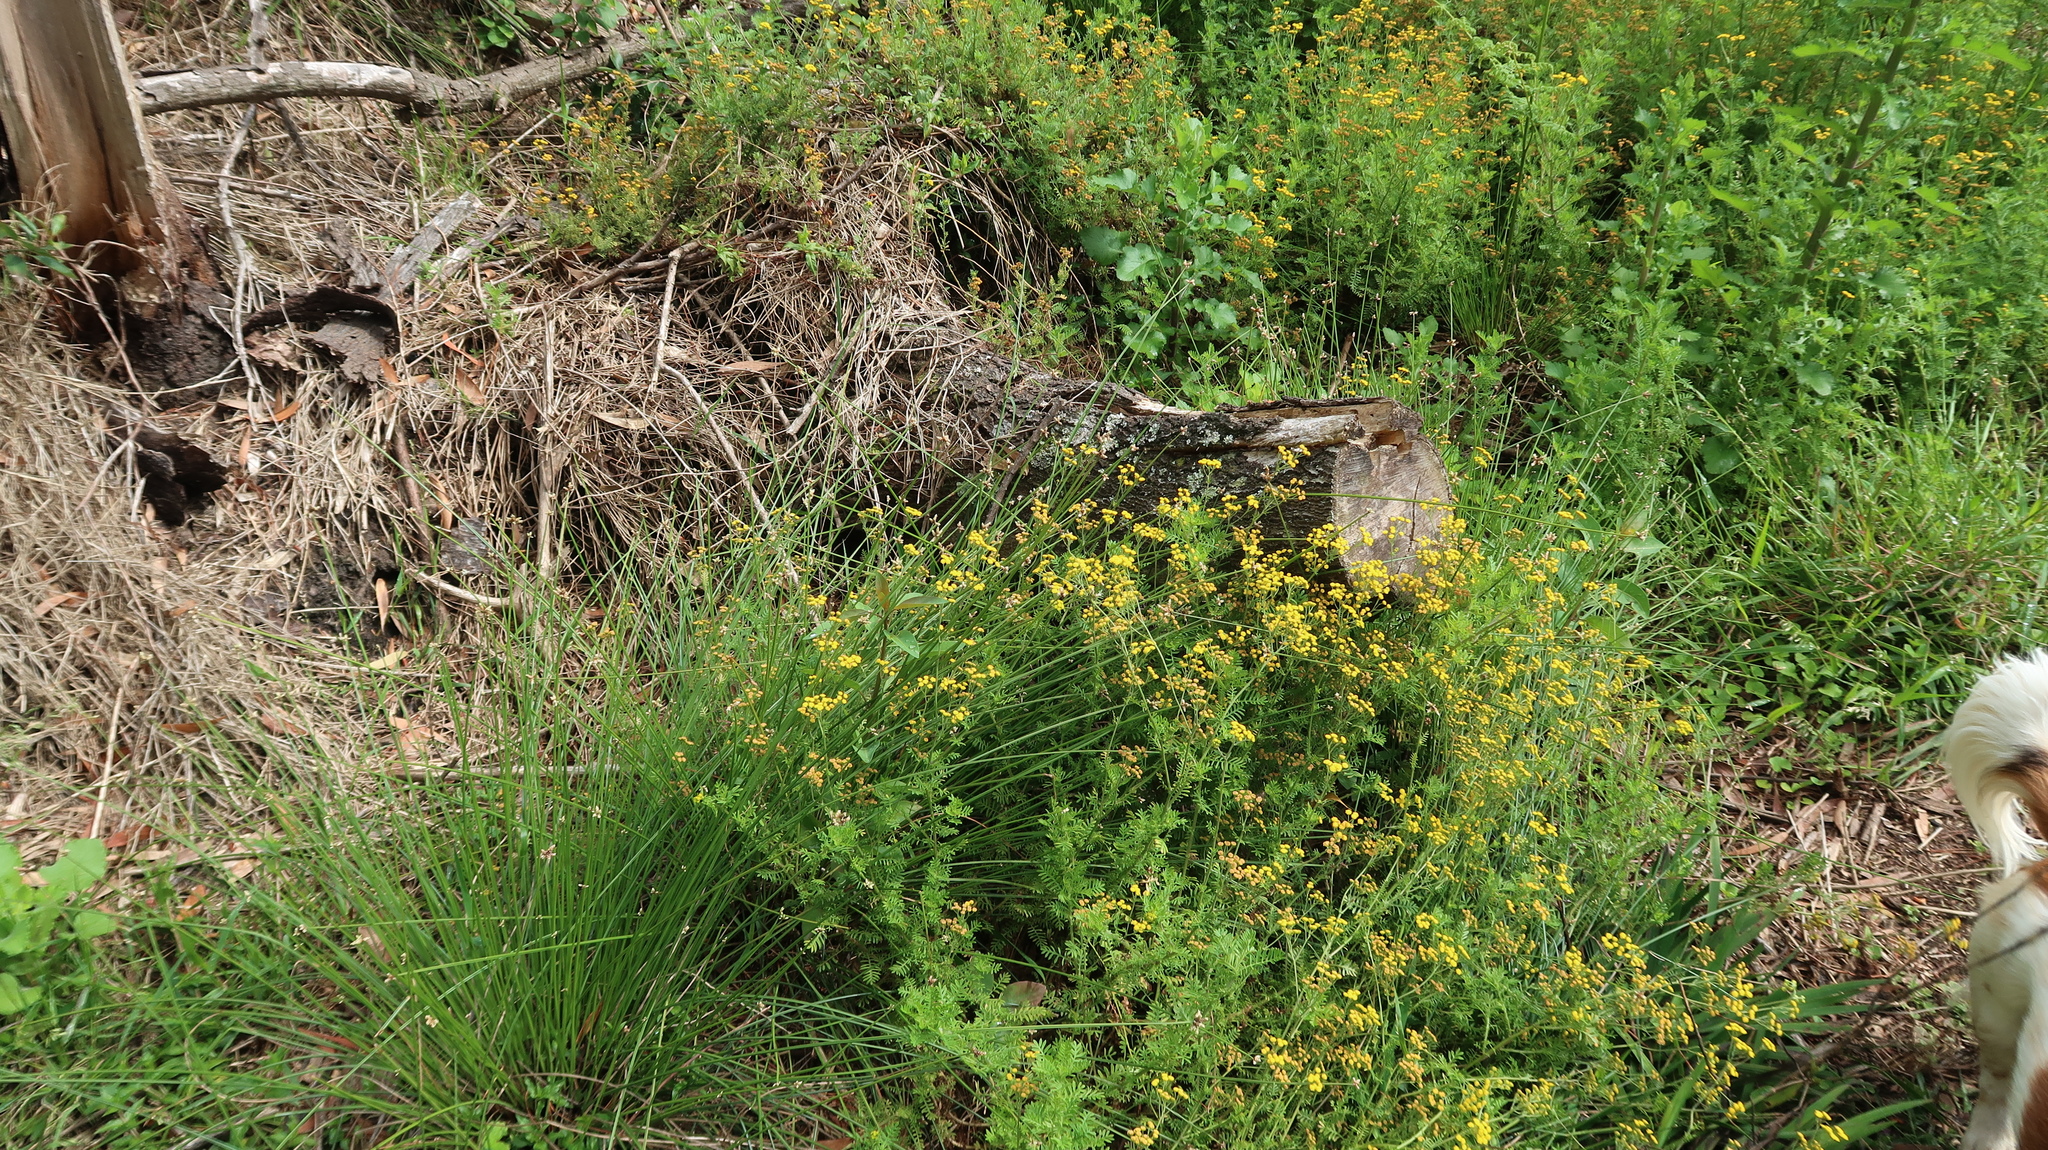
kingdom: Plantae
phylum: Tracheophyta
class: Magnoliopsida
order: Asterales
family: Asteraceae
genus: Hippia
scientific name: Hippia frutescens
